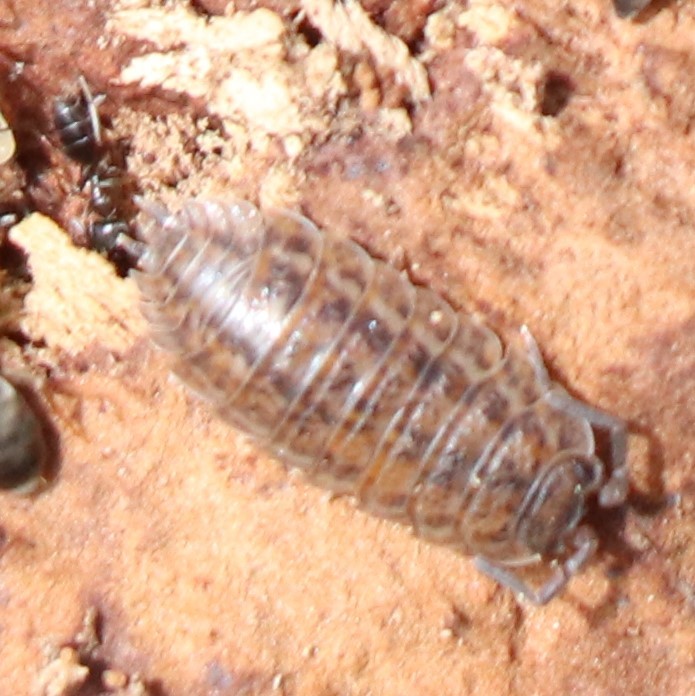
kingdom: Animalia
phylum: Arthropoda
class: Malacostraca
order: Isopoda
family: Trachelipodidae
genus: Trachelipus
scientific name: Trachelipus rathkii
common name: Isopod
